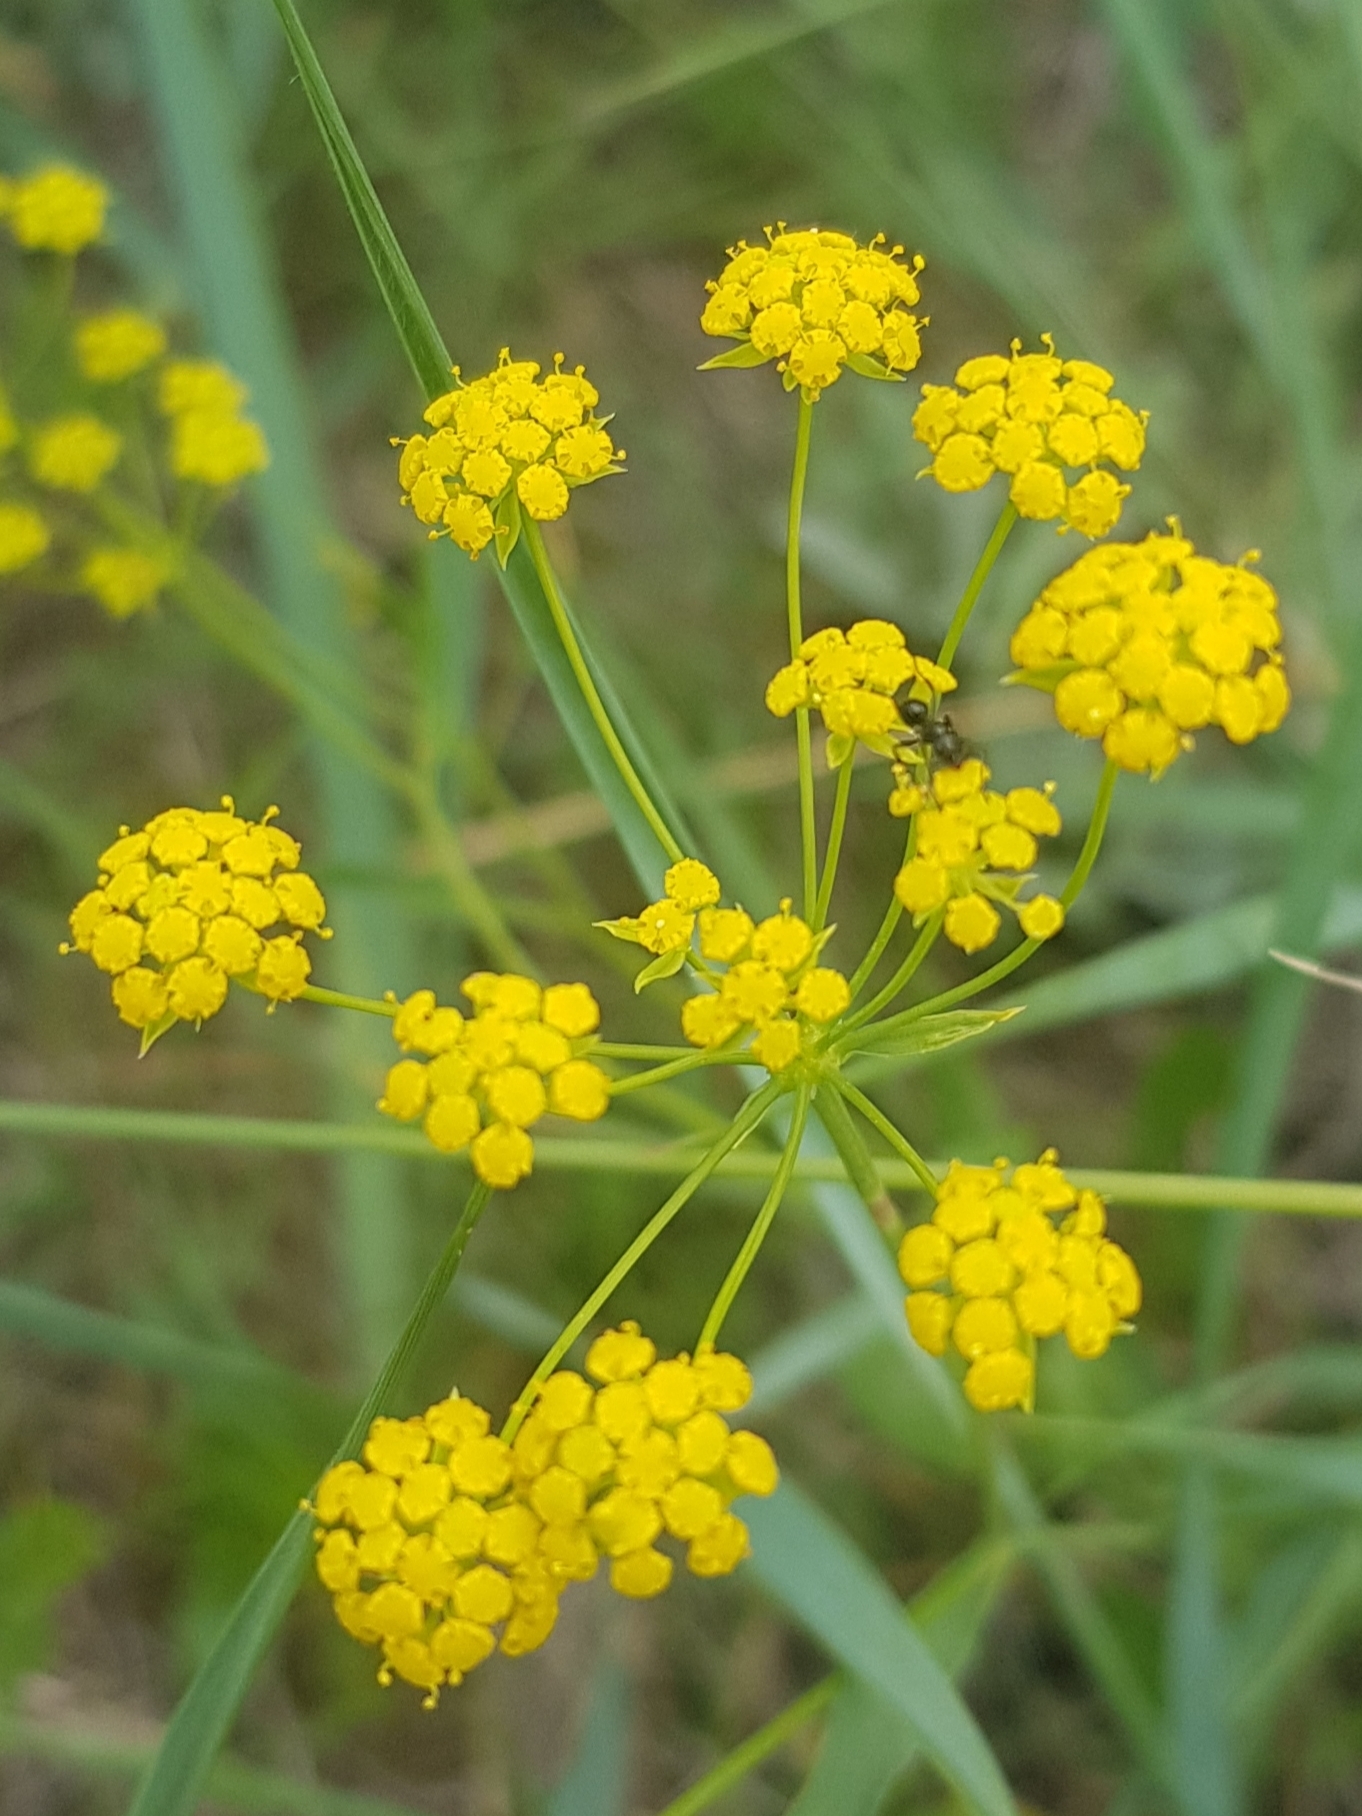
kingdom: Plantae
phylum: Tracheophyta
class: Magnoliopsida
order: Apiales
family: Apiaceae
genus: Bupleurum
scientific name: Bupleurum sibiricum
